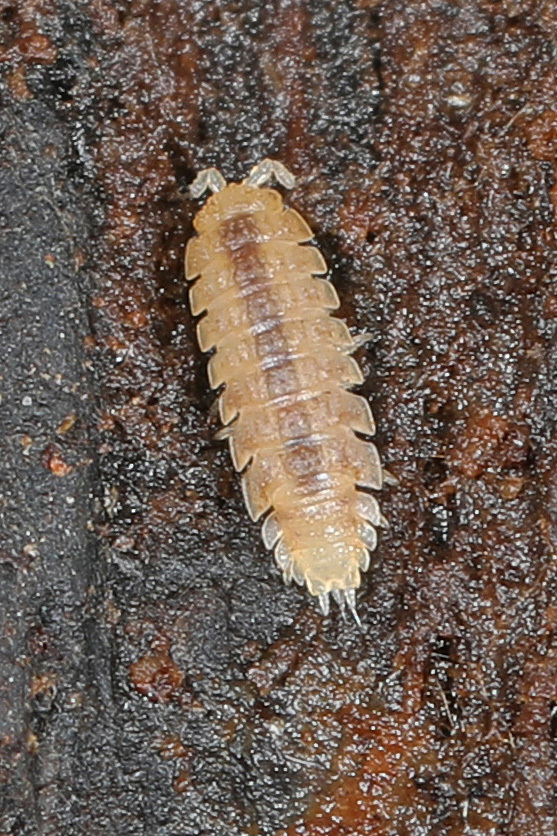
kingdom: Animalia
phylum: Arthropoda
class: Malacostraca
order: Isopoda
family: Trichoniscidae
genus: Haplophthalmus
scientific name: Haplophthalmus danicus
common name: Pillbug
